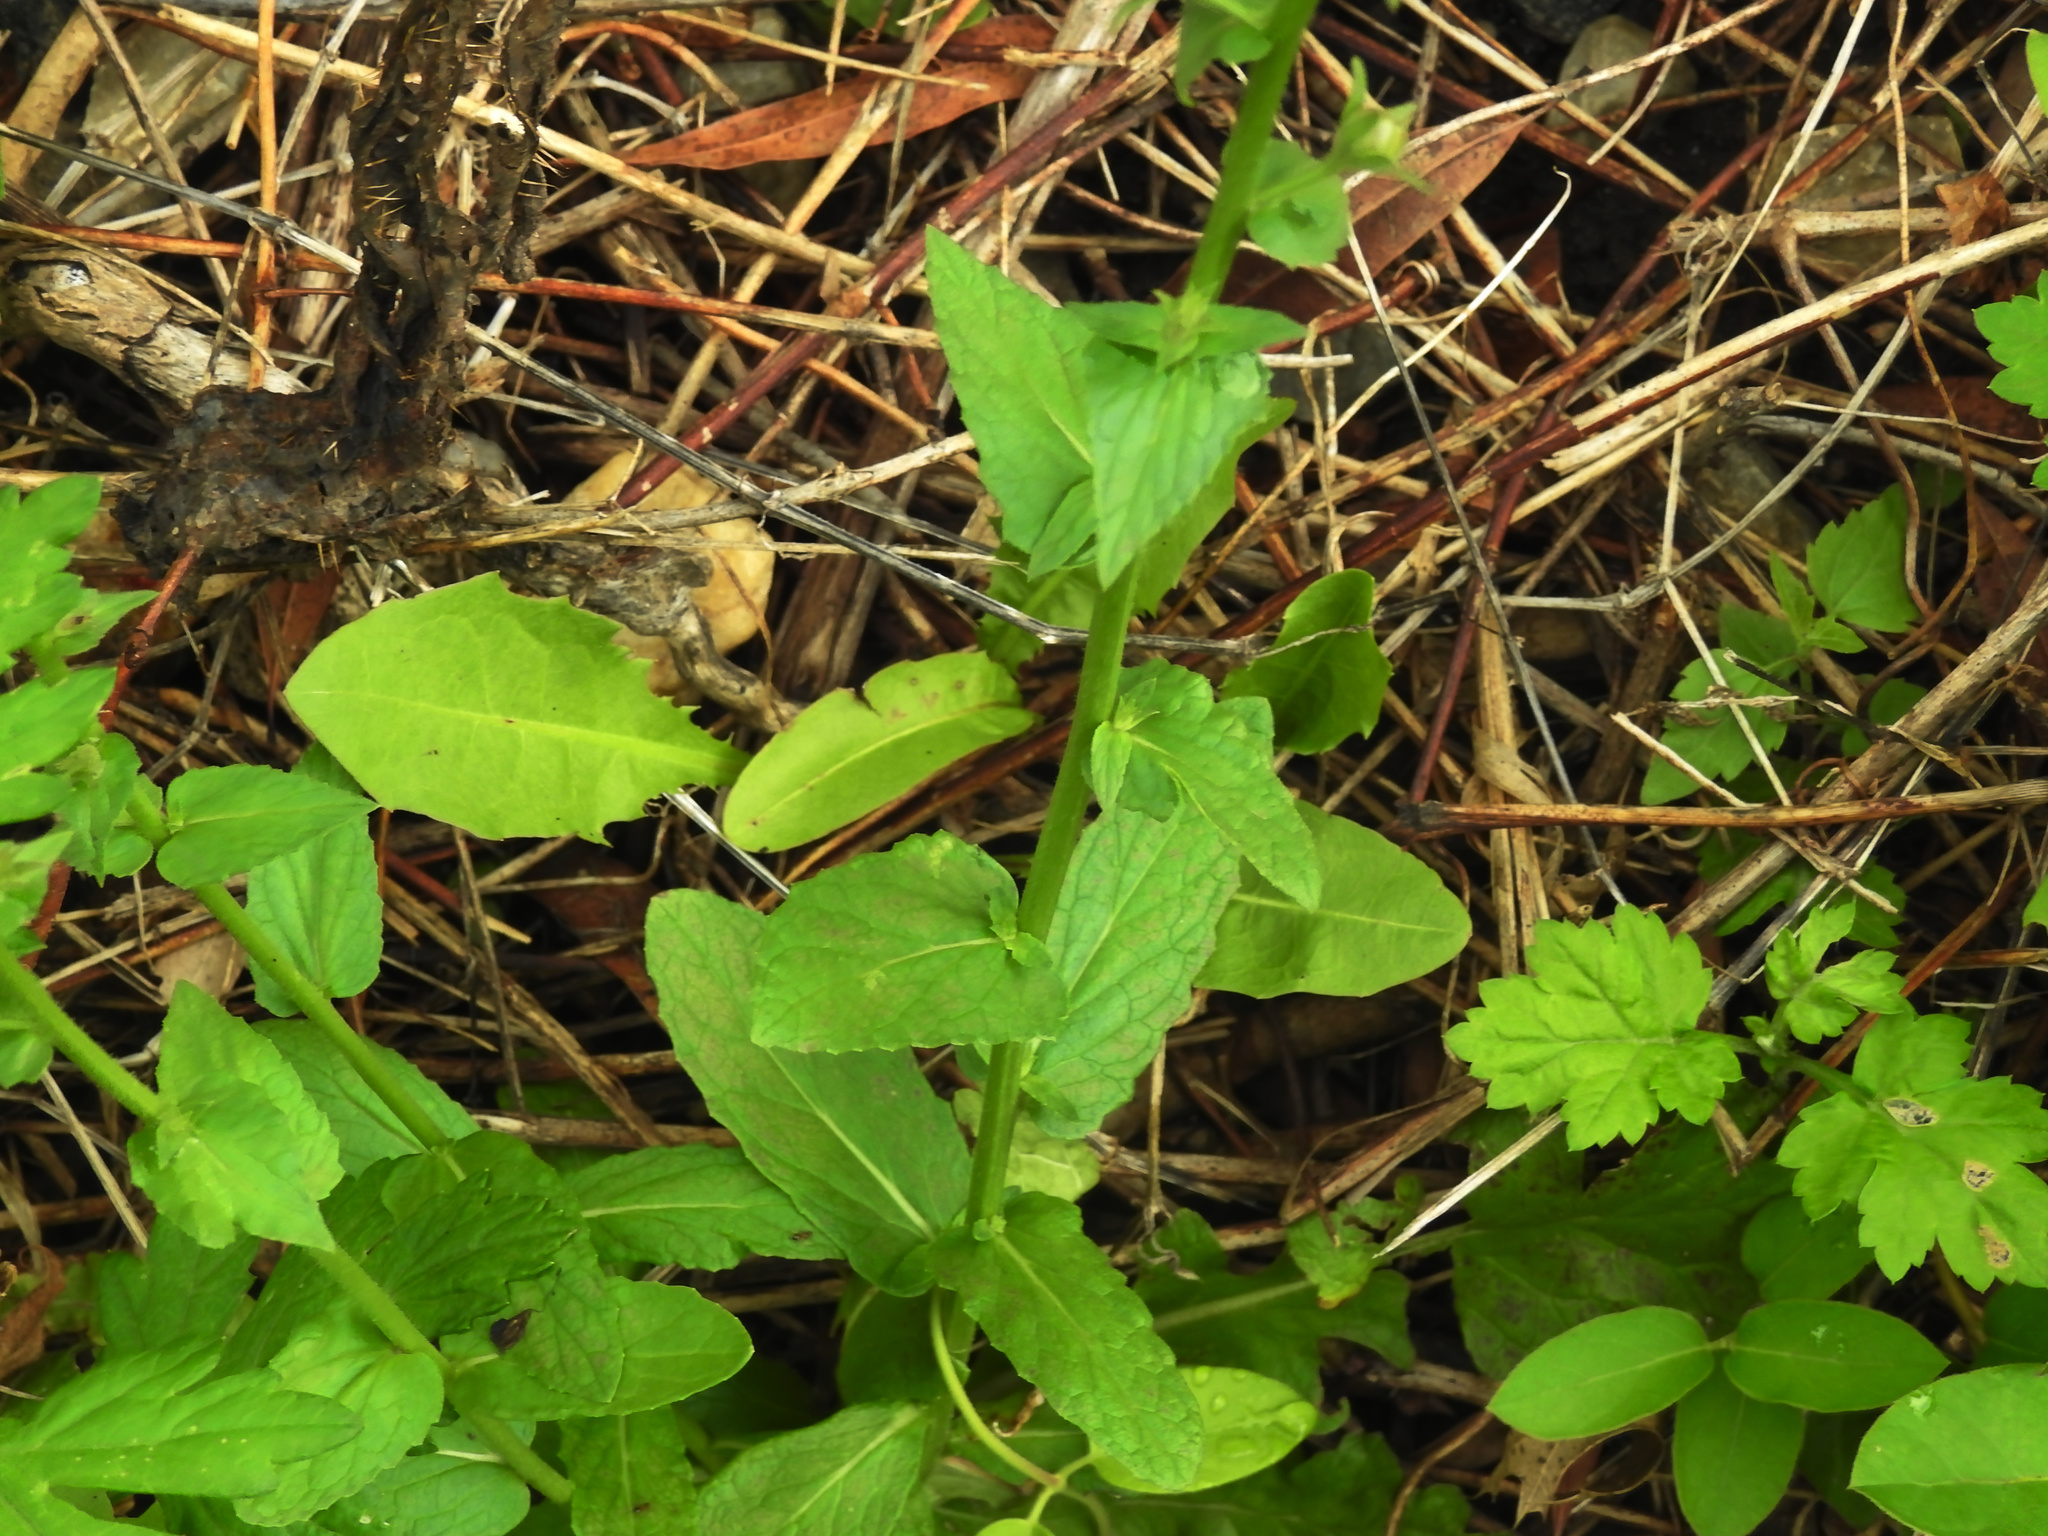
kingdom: Plantae
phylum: Tracheophyta
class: Magnoliopsida
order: Lamiales
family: Scrophulariaceae
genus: Verbascum
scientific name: Verbascum blattaria
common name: Moth mullein
